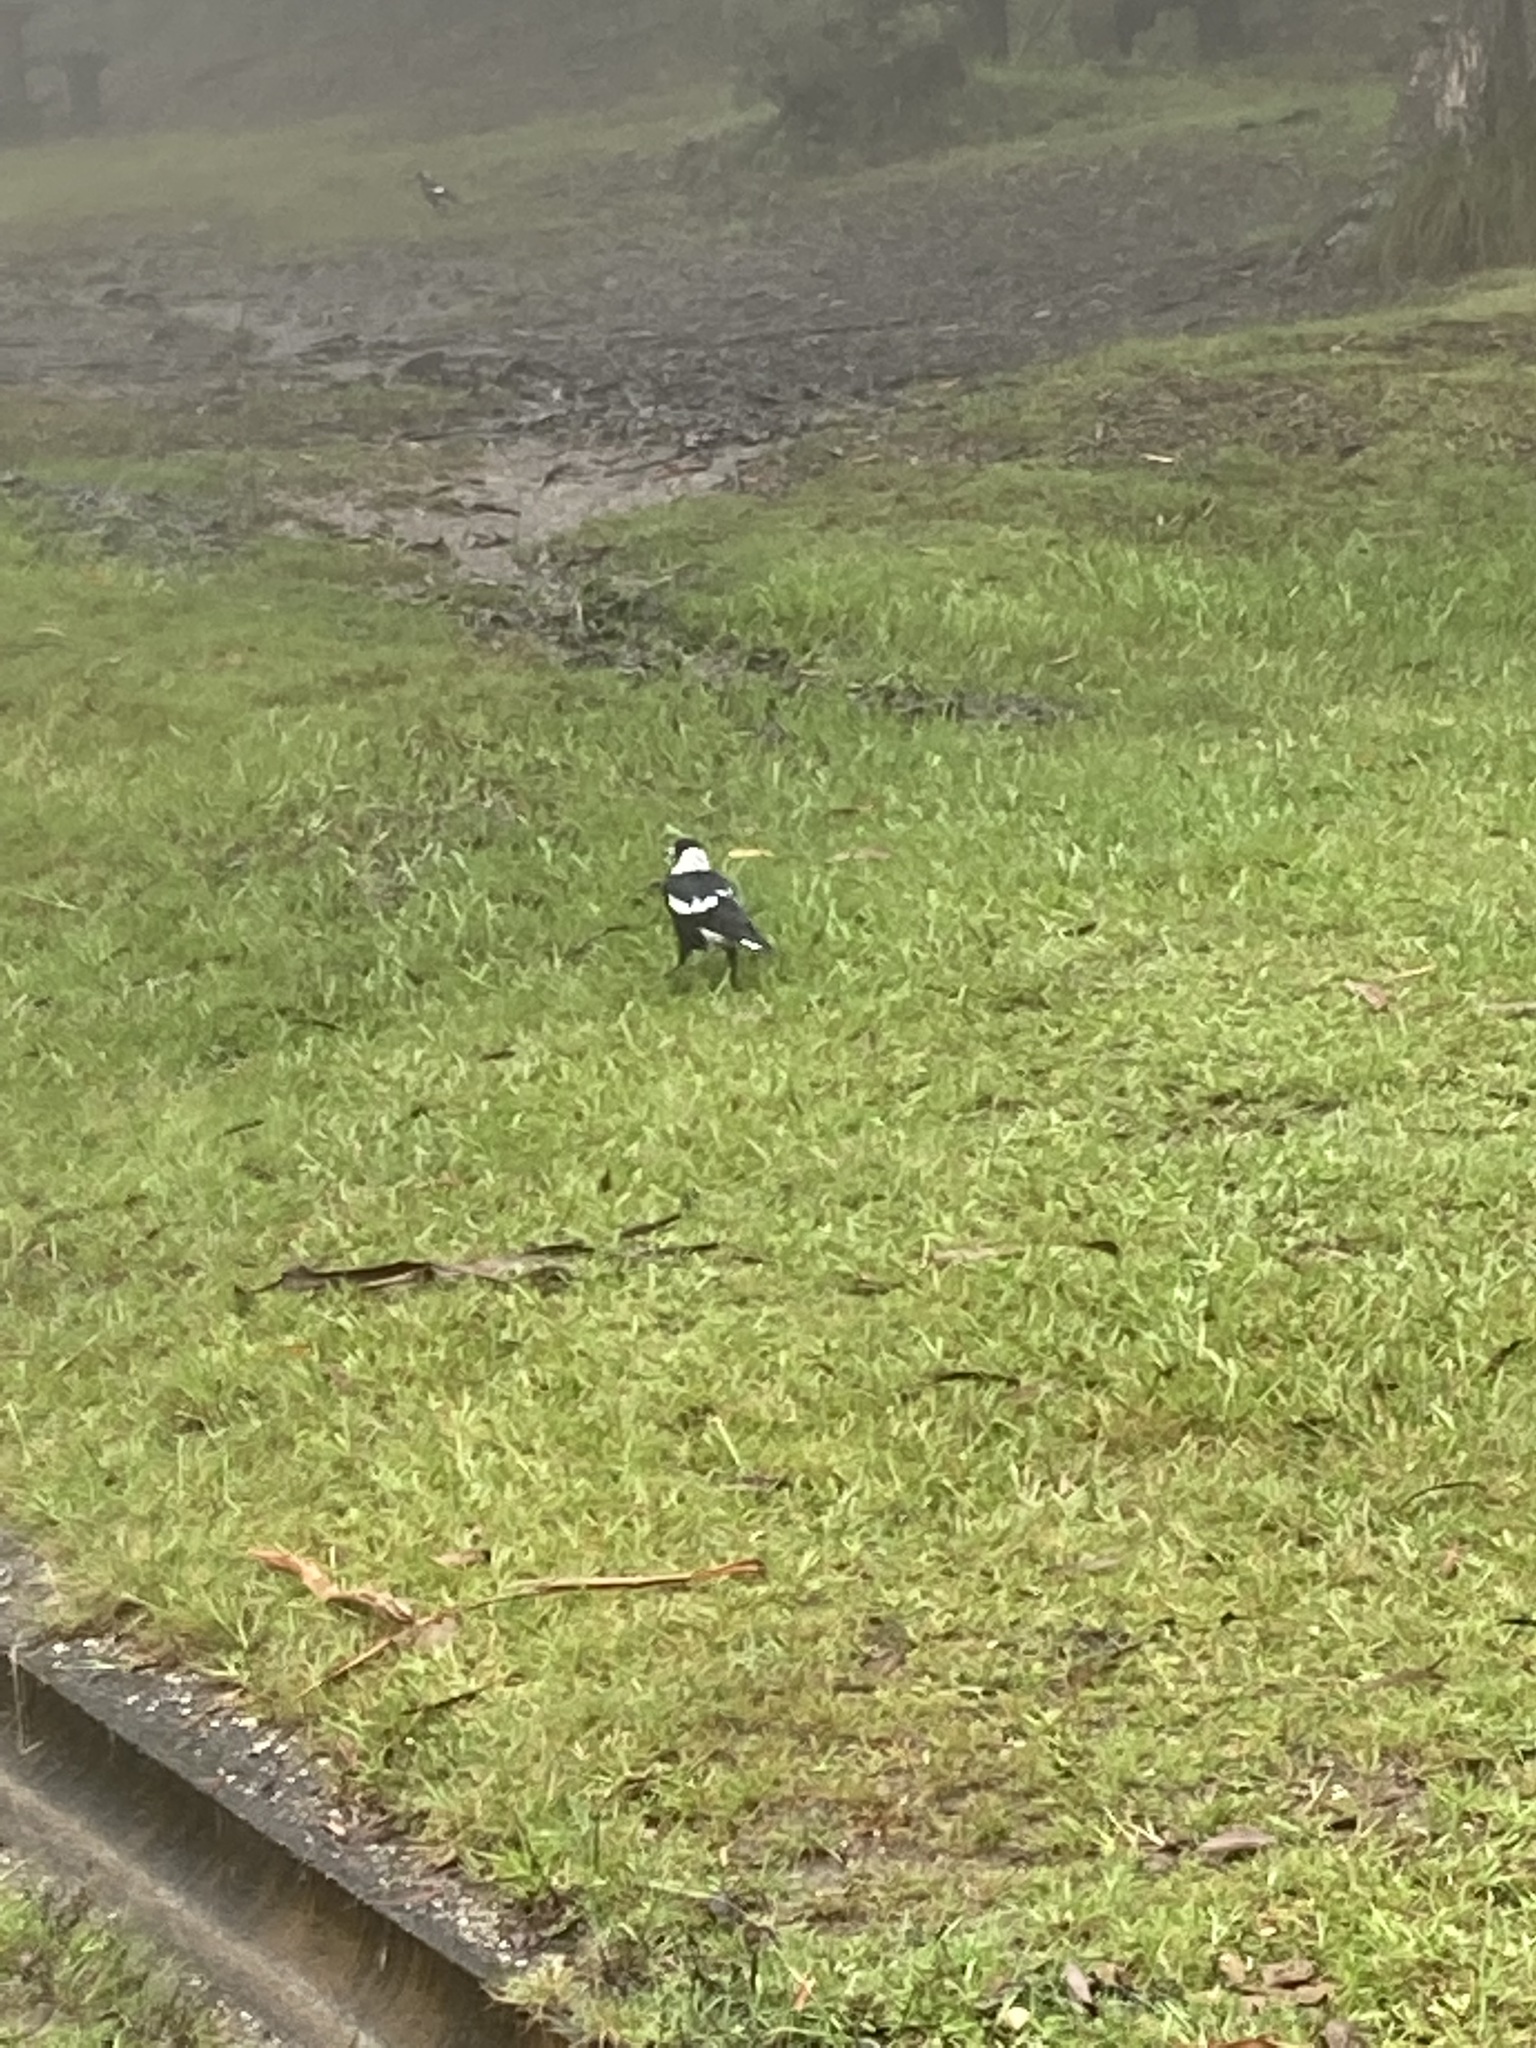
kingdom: Animalia
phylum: Chordata
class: Aves
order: Passeriformes
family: Cracticidae
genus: Gymnorhina
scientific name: Gymnorhina tibicen
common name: Australian magpie
